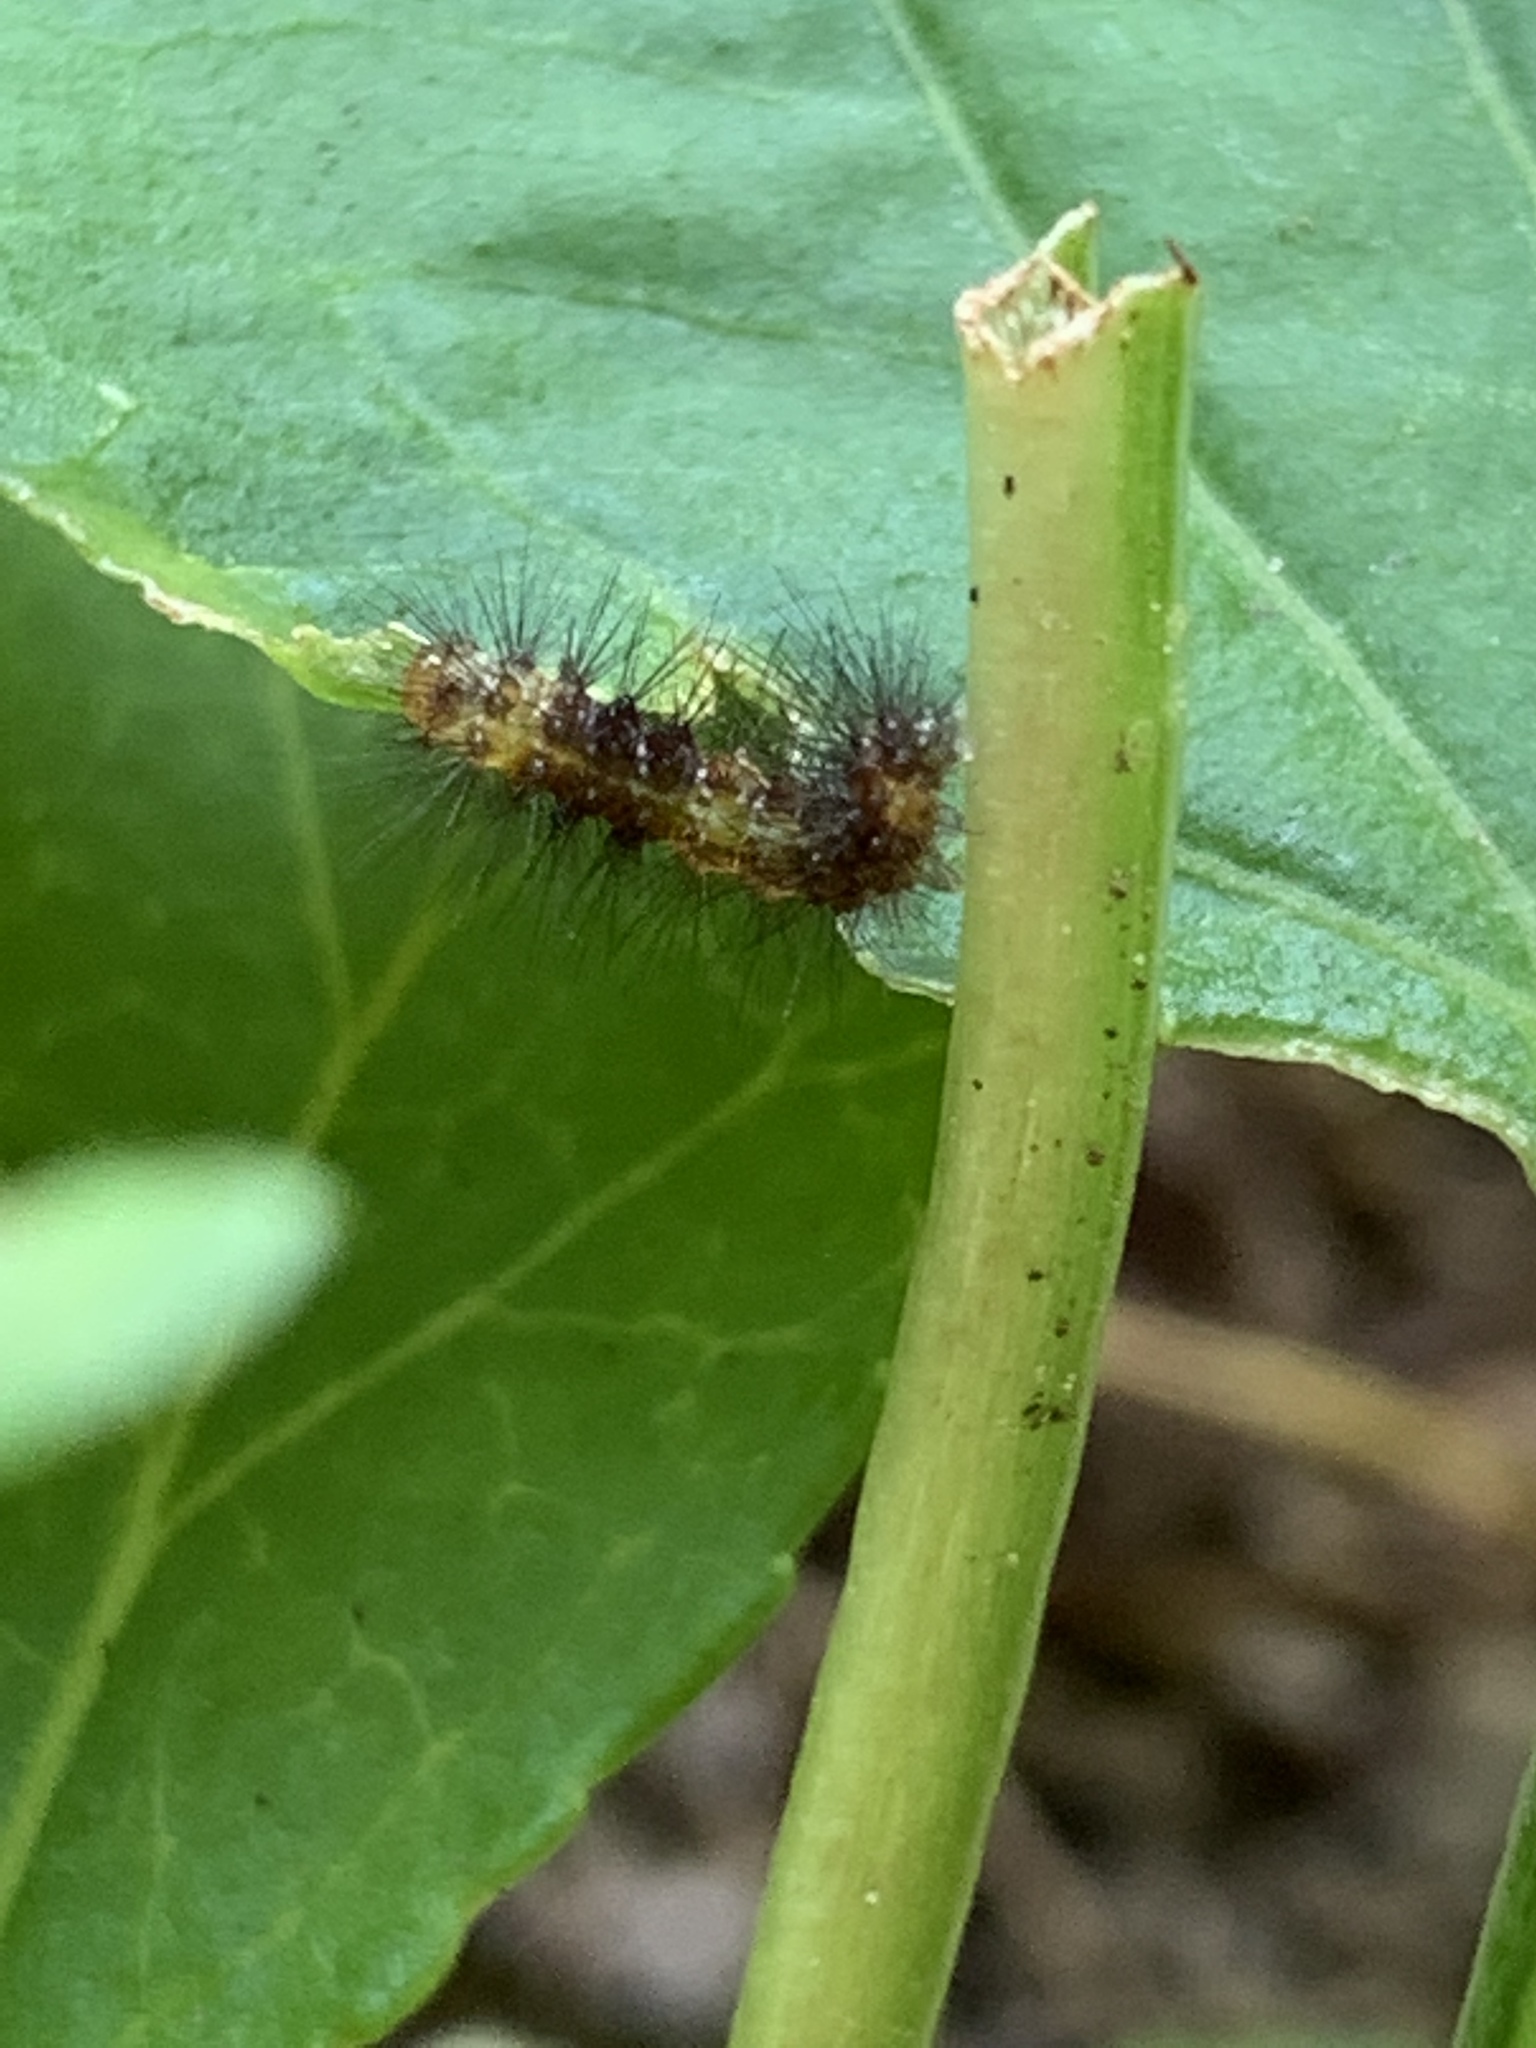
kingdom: Animalia
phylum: Arthropoda
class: Insecta
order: Lepidoptera
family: Erebidae
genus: Hypercompe
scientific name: Hypercompe scribonia
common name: Giant leopard moth
